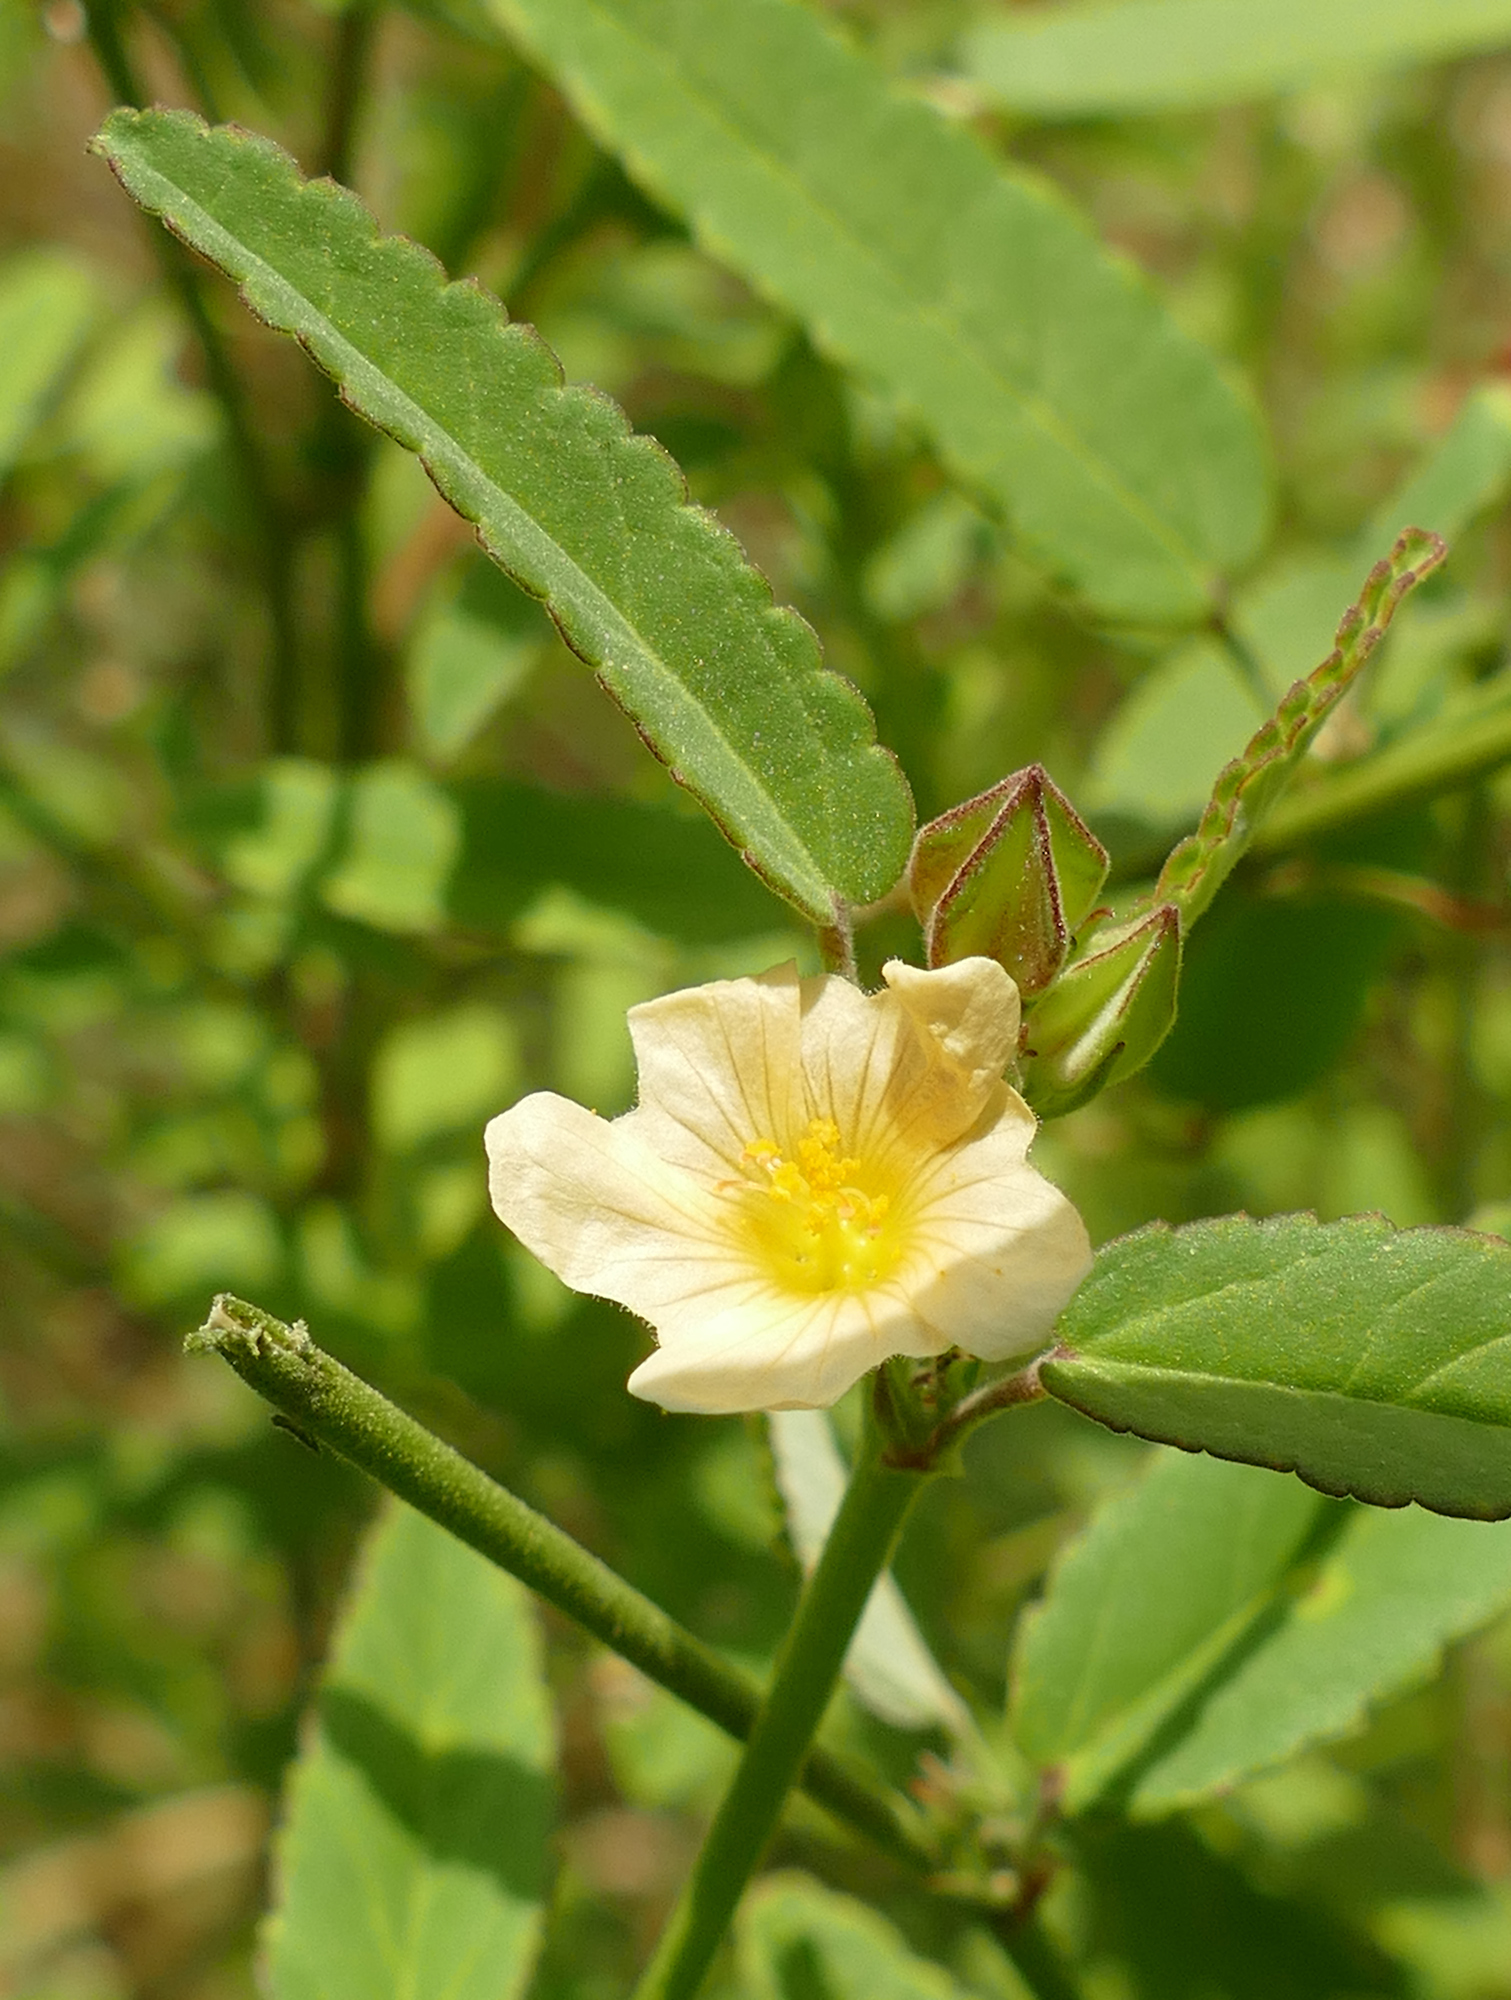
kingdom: Plantae
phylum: Tracheophyta
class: Magnoliopsida
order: Malvales
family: Malvaceae
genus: Sida
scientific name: Sida spinosa
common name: Prickly fanpetals
